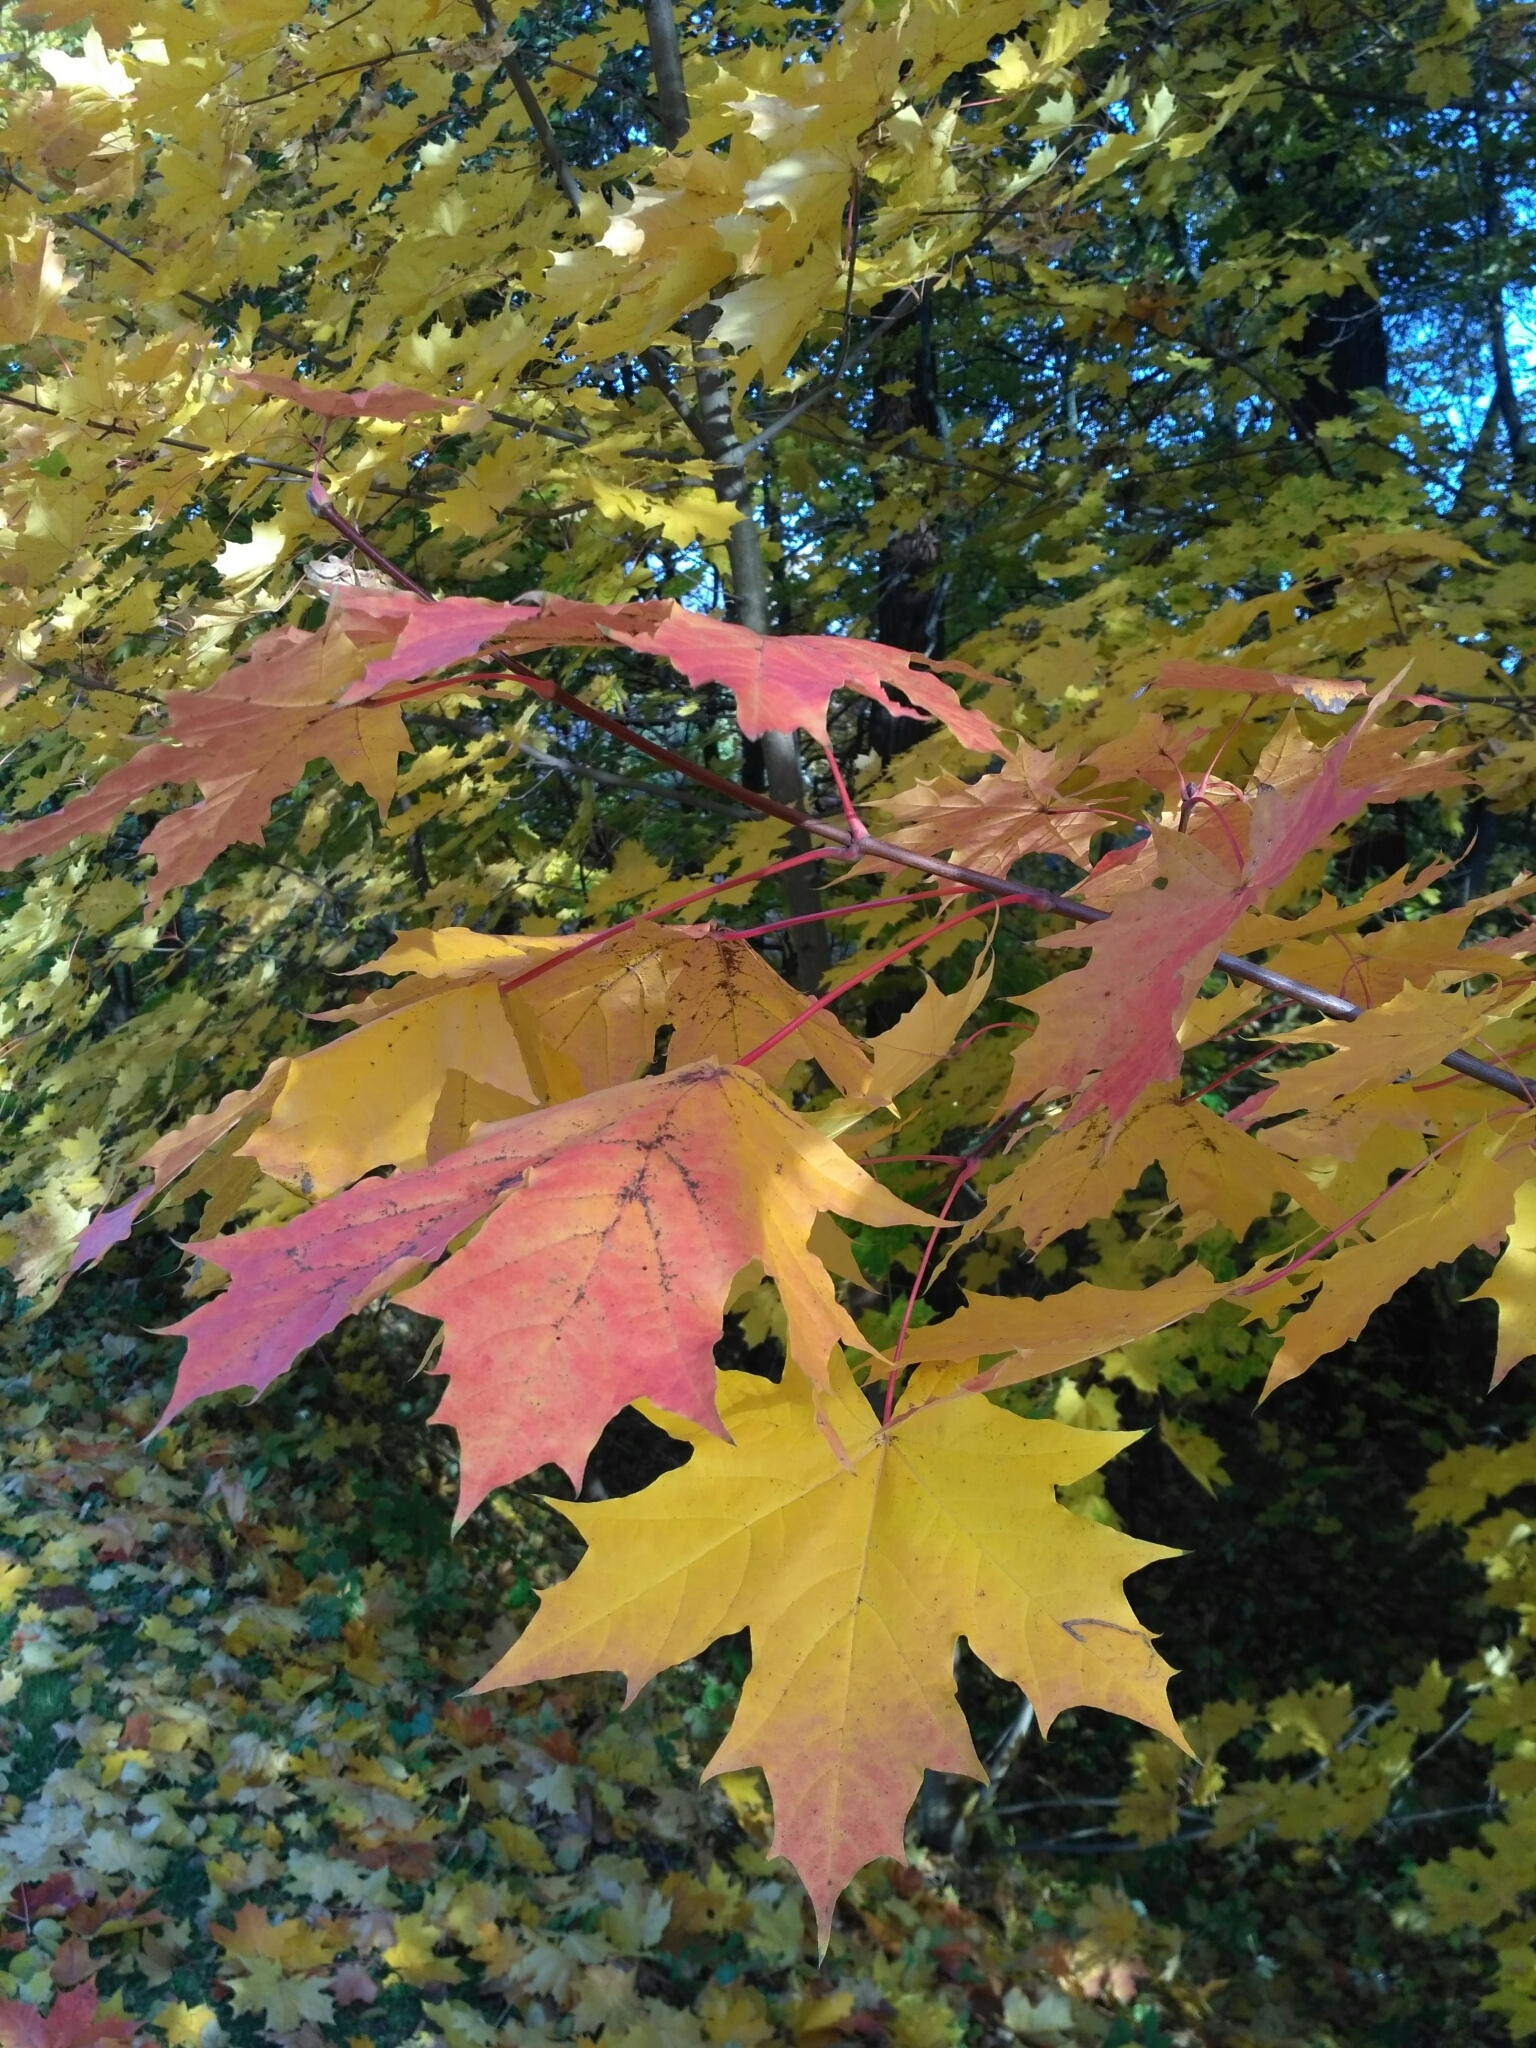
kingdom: Plantae
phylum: Tracheophyta
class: Magnoliopsida
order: Sapindales
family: Sapindaceae
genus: Acer
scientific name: Acer platanoides
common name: Norway maple
